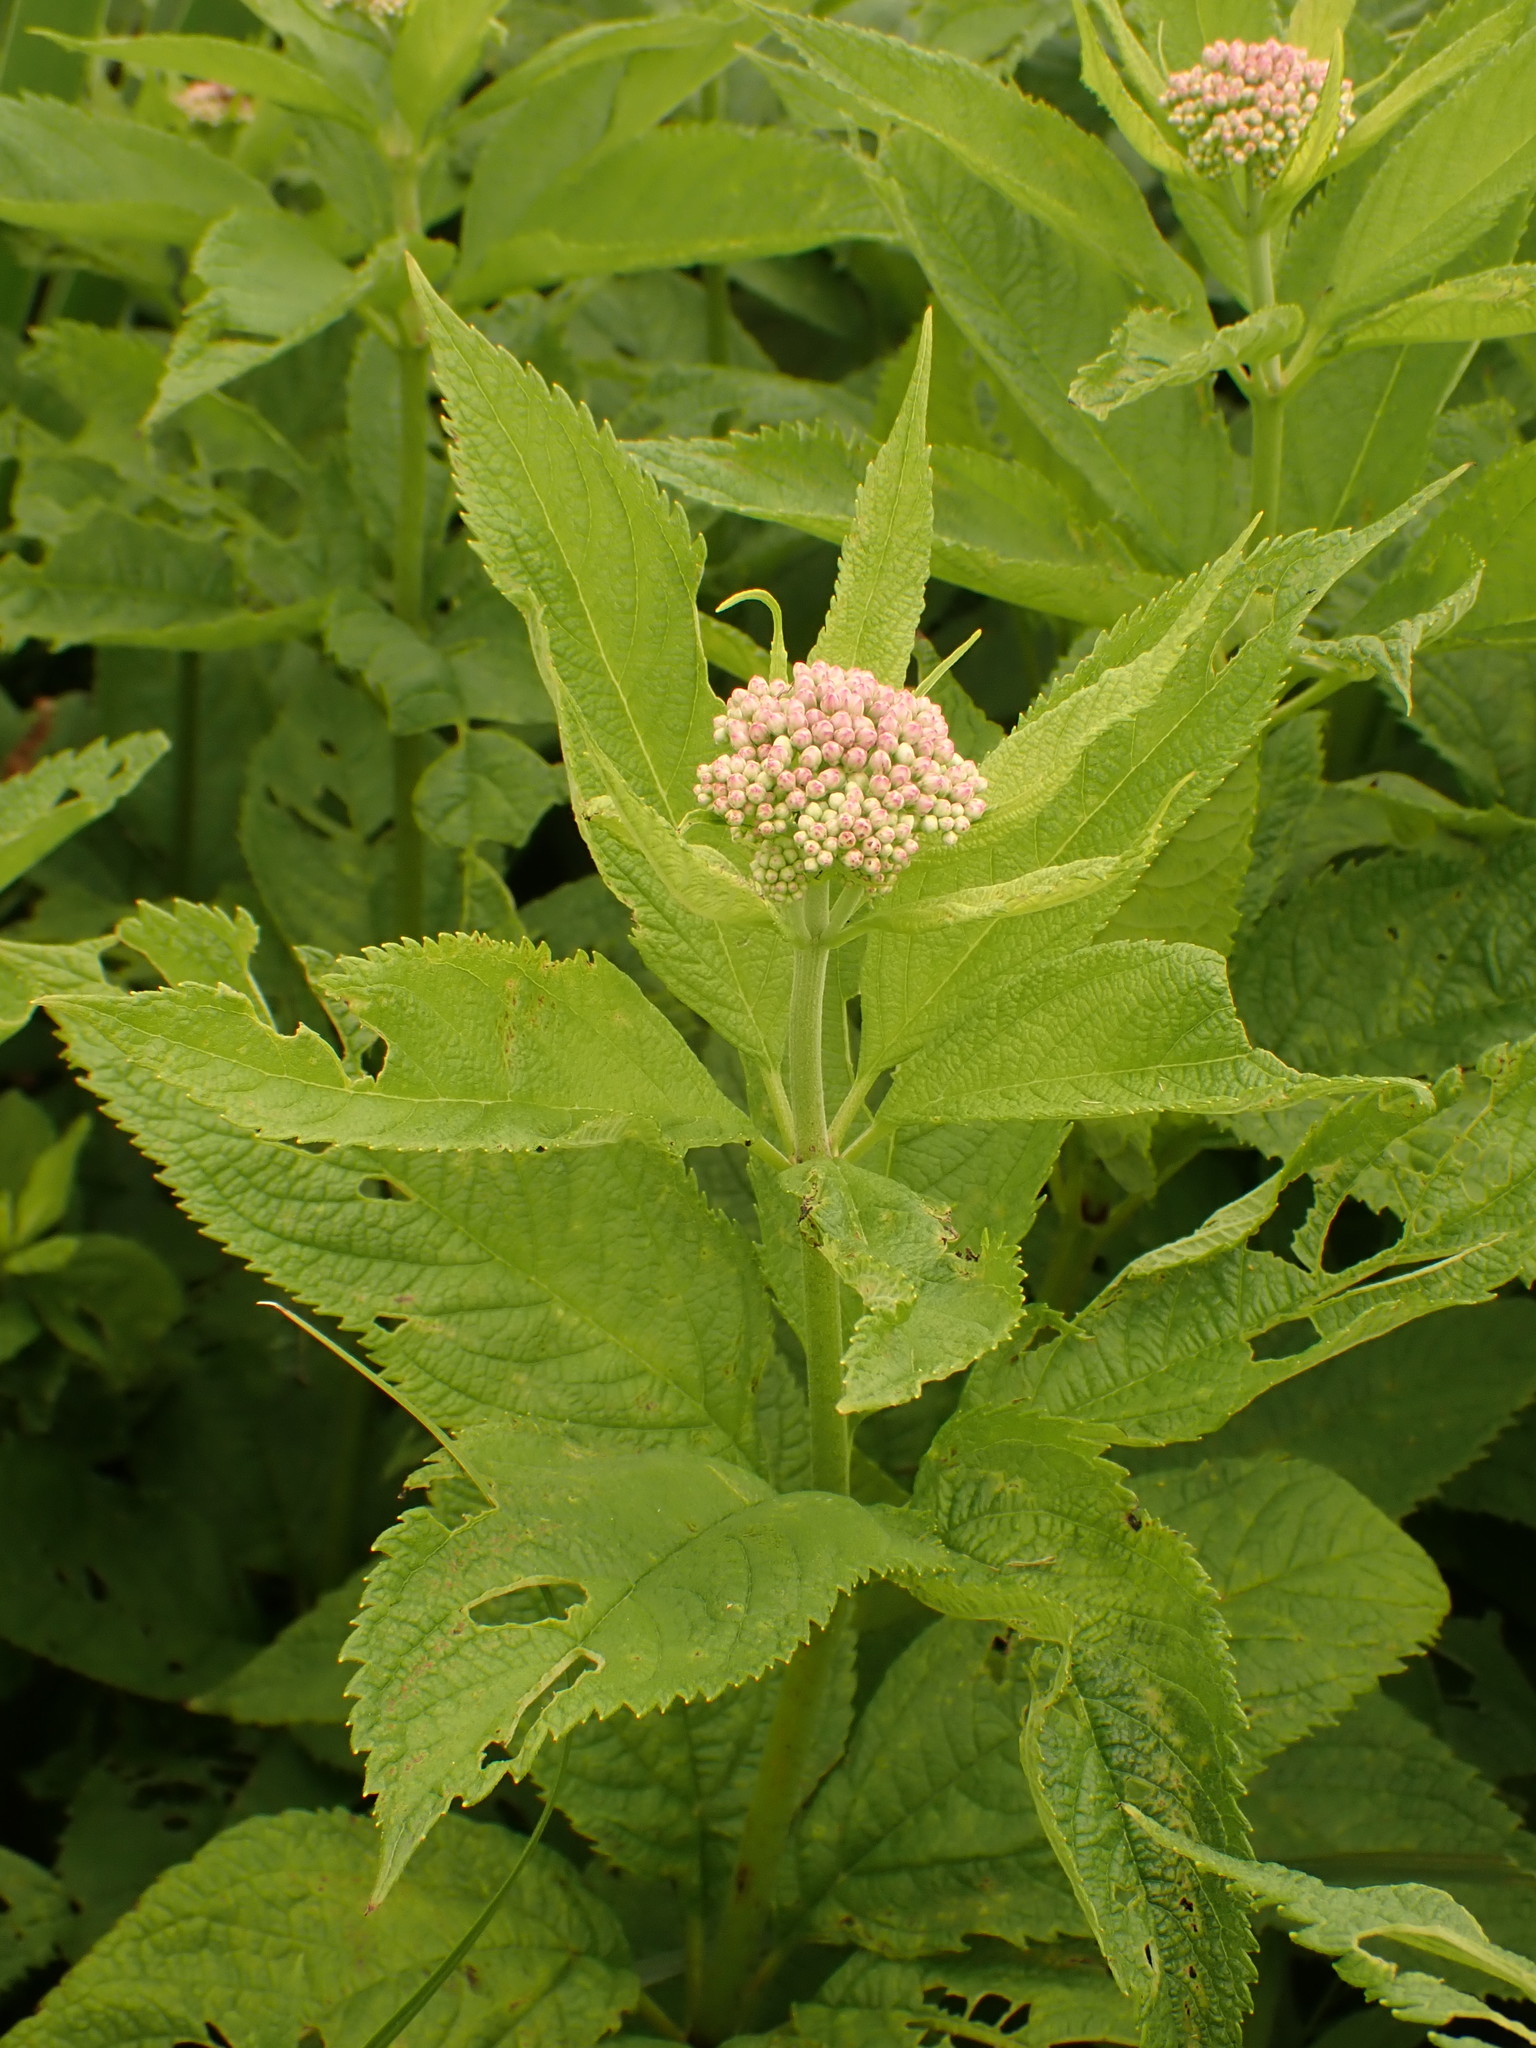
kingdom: Plantae
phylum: Tracheophyta
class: Magnoliopsida
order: Asterales
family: Asteraceae
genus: Eutrochium
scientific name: Eutrochium maculatum
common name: Spotted joe pye weed
